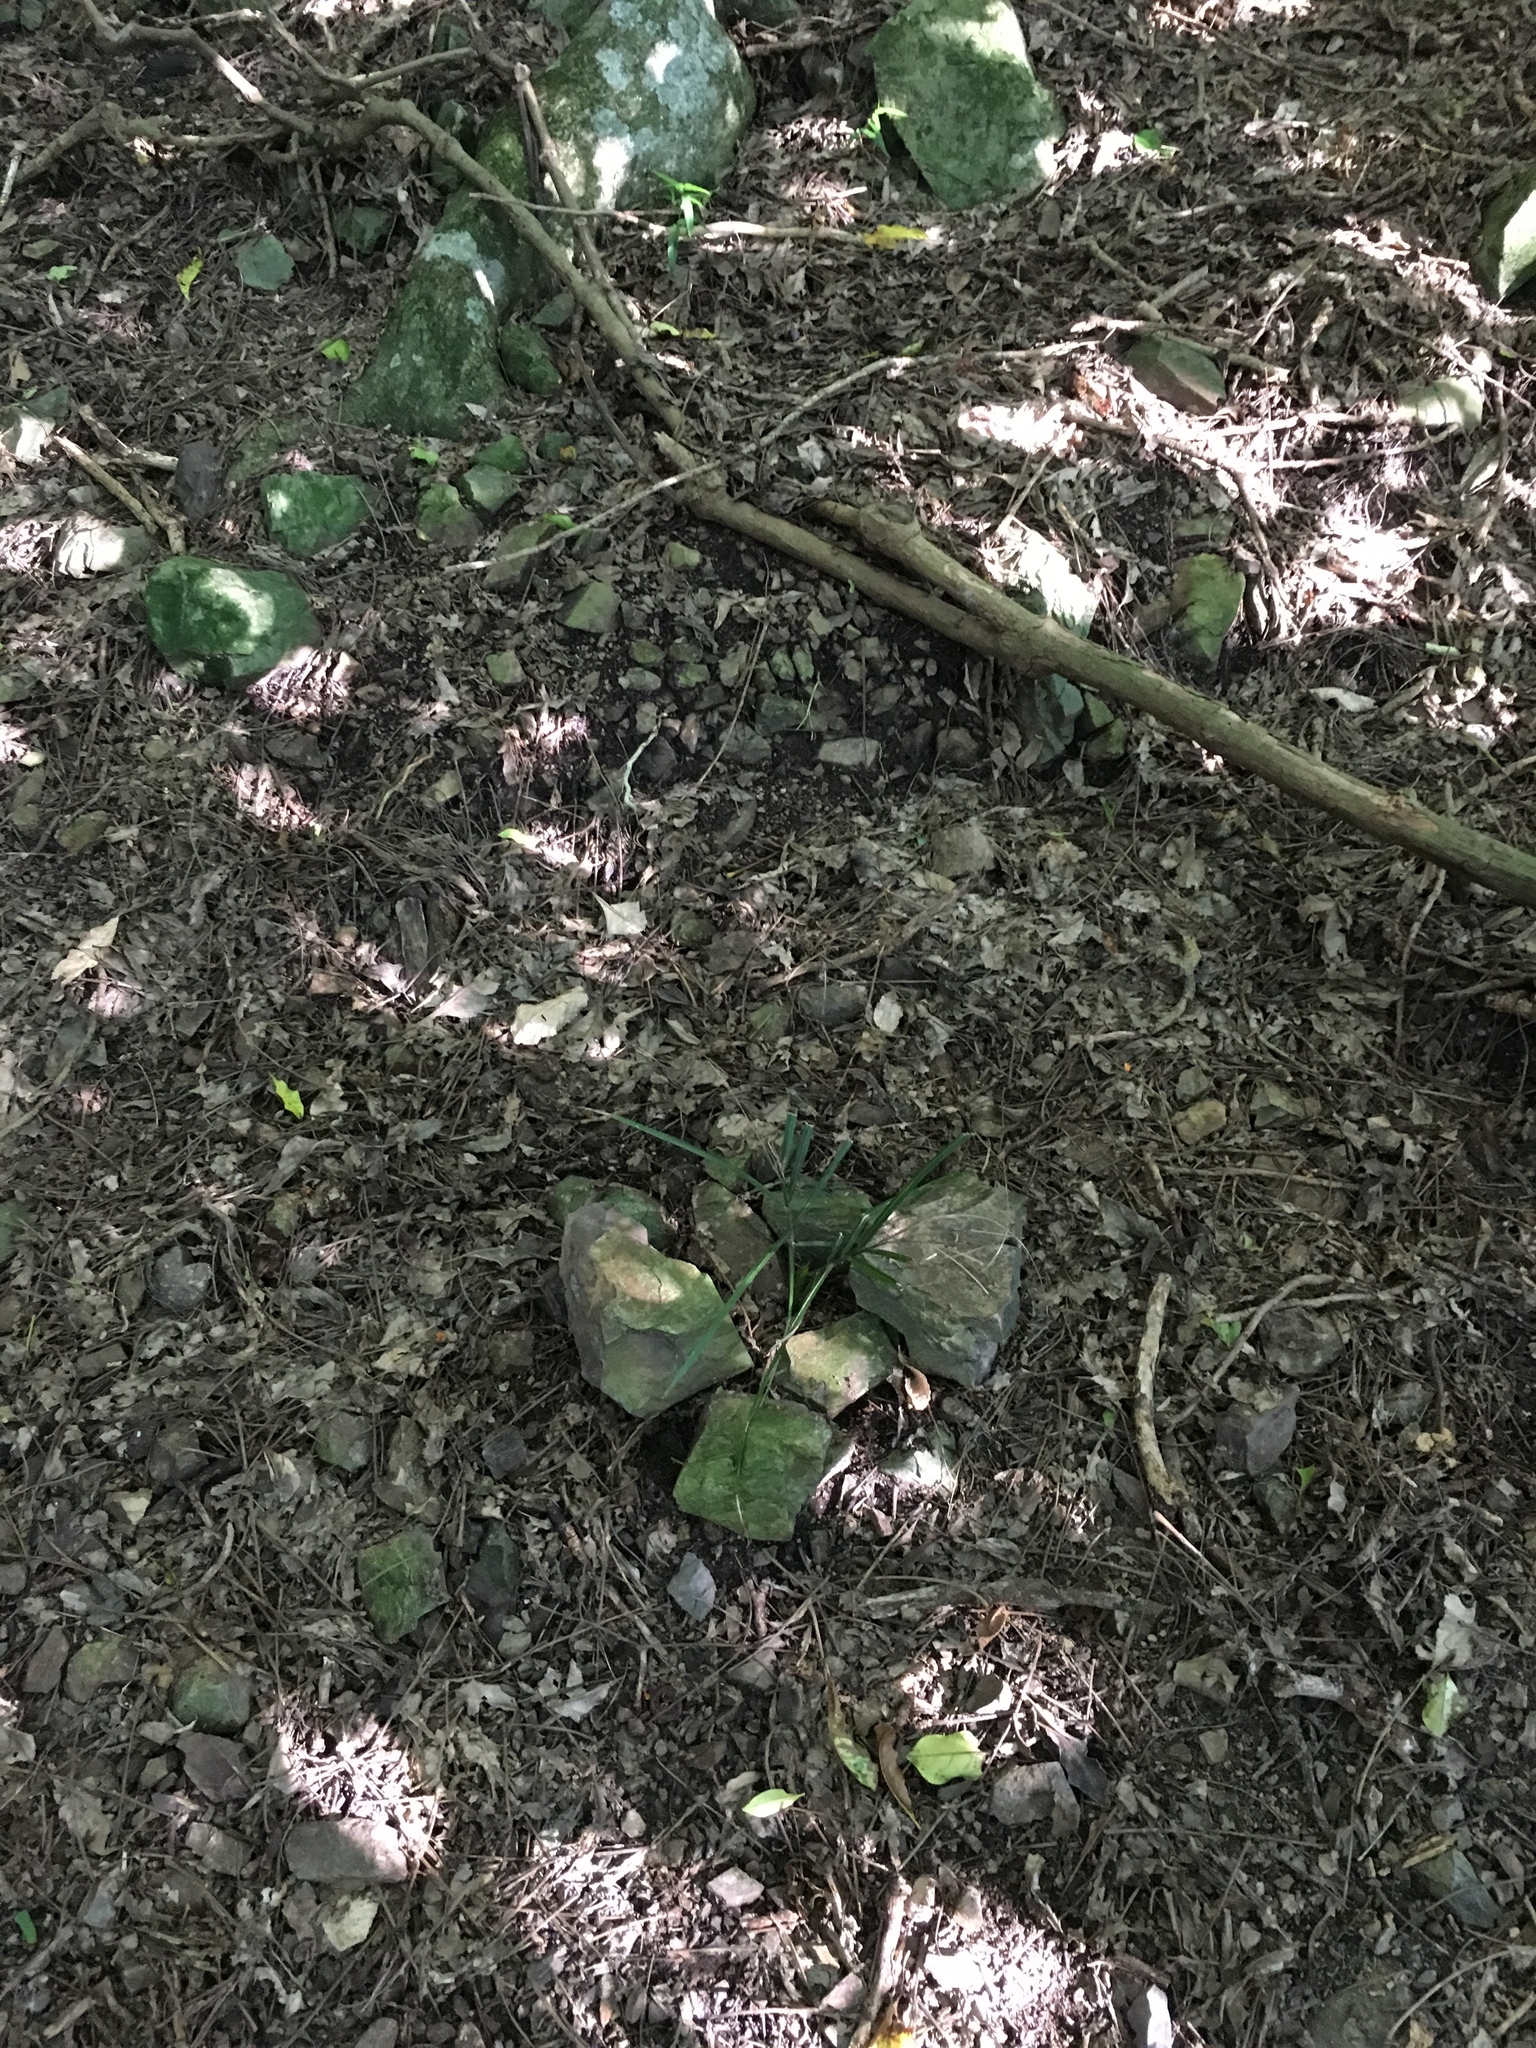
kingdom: Plantae
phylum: Tracheophyta
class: Liliopsida
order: Arecales
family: Arecaceae
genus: Rhopalostylis
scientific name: Rhopalostylis sapida
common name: Feather-duster palm
